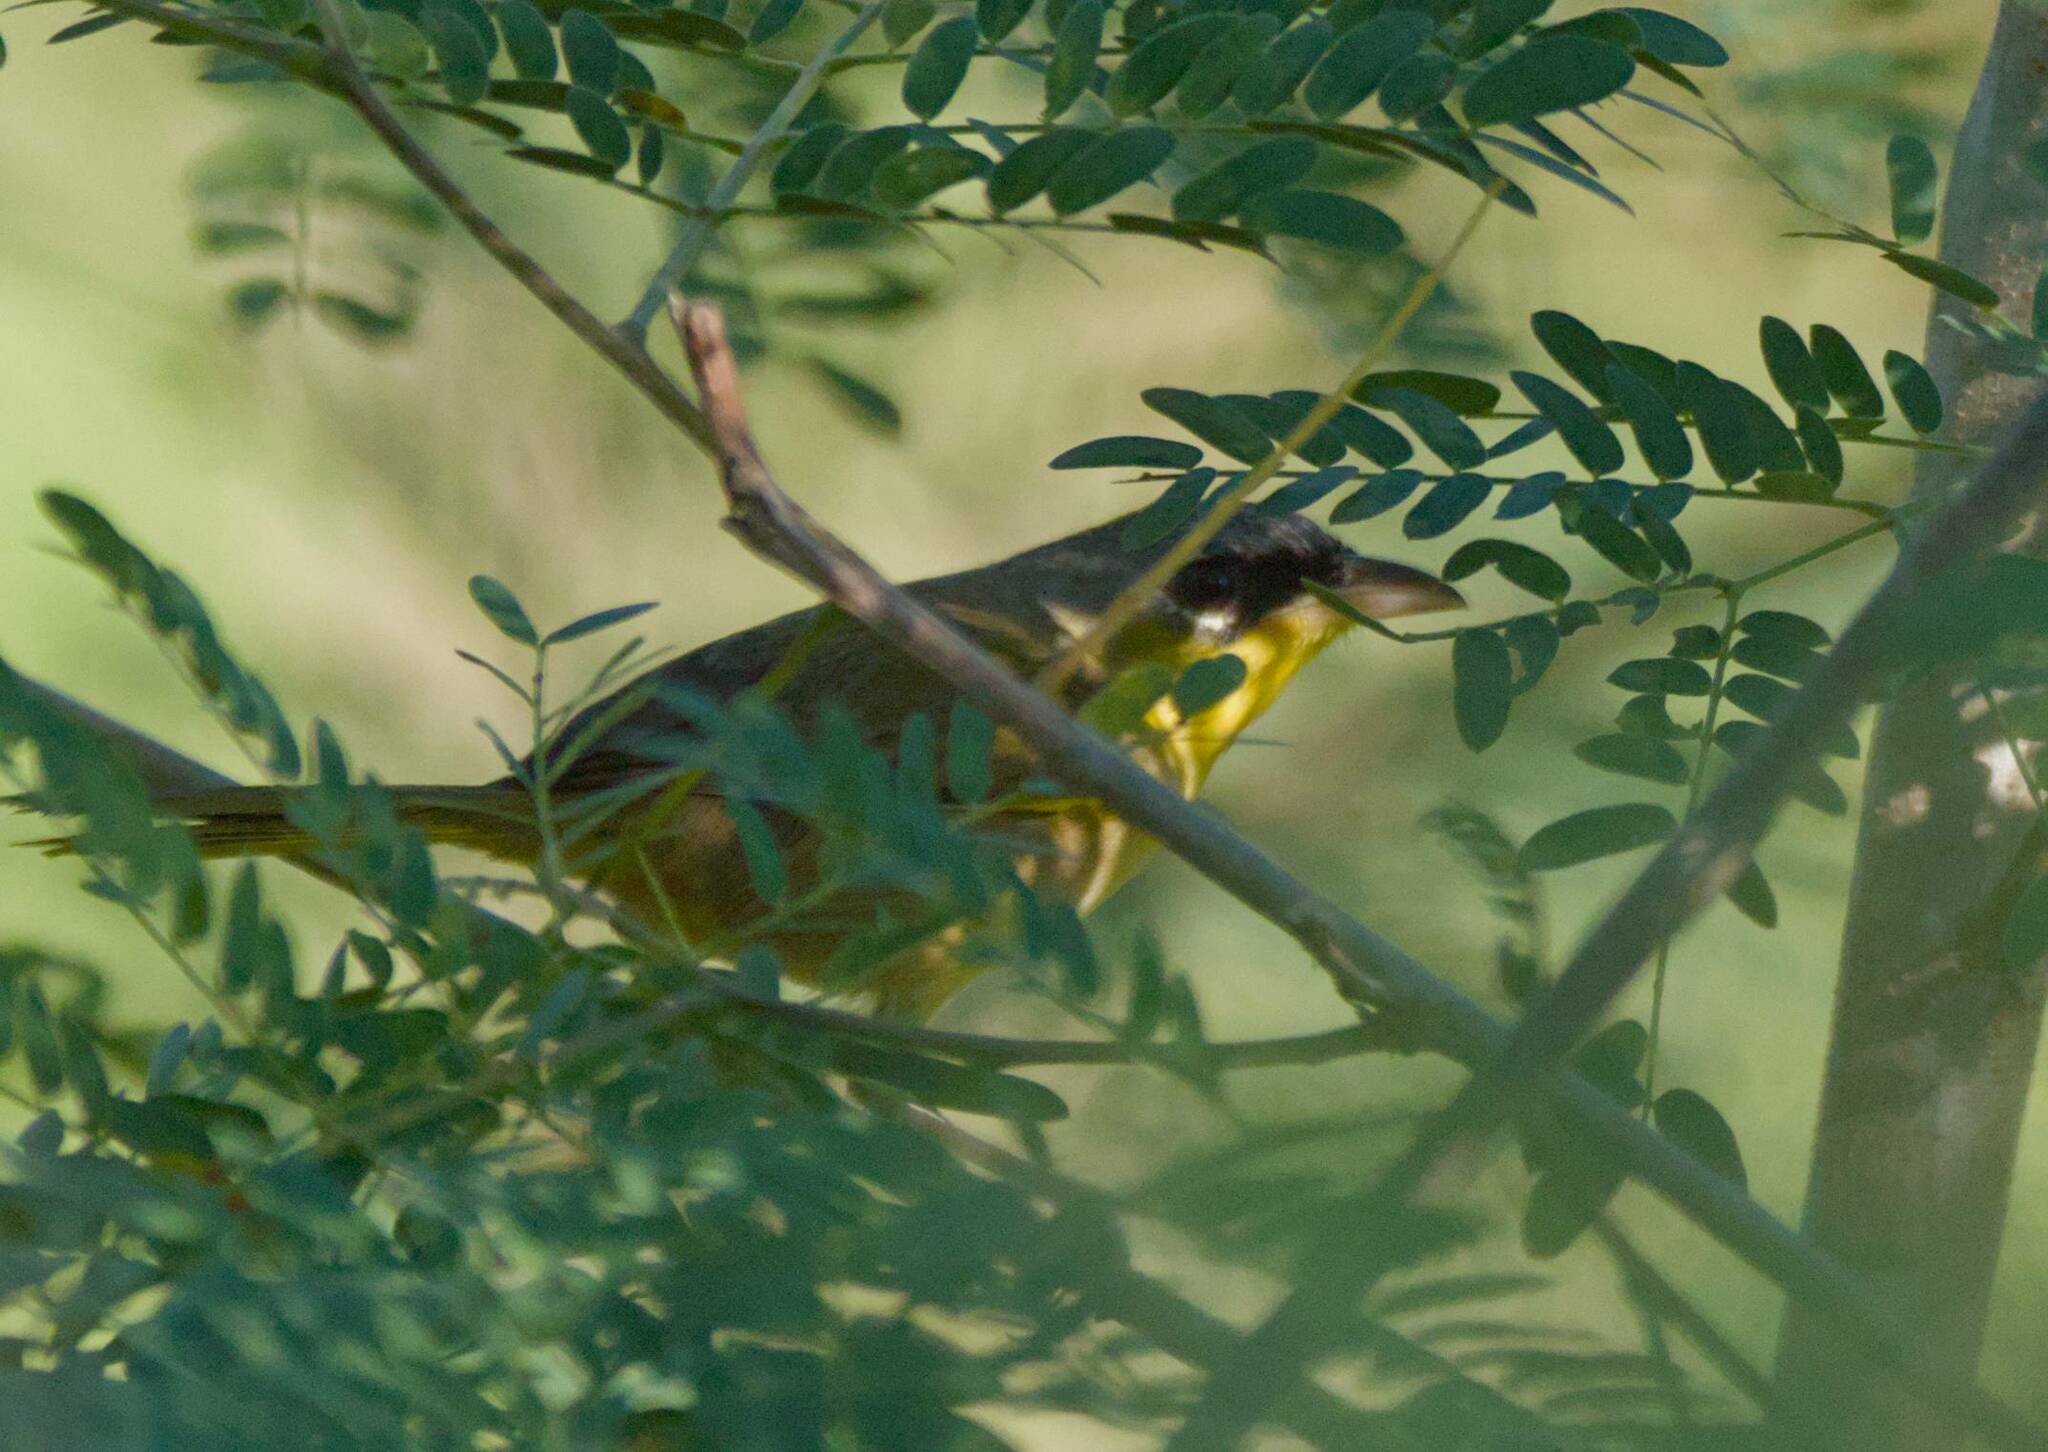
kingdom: Animalia
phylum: Chordata
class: Aves
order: Passeriformes
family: Parulidae
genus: Geothlypis
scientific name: Geothlypis poliocephala
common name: Gray-crowned yellowthroat
